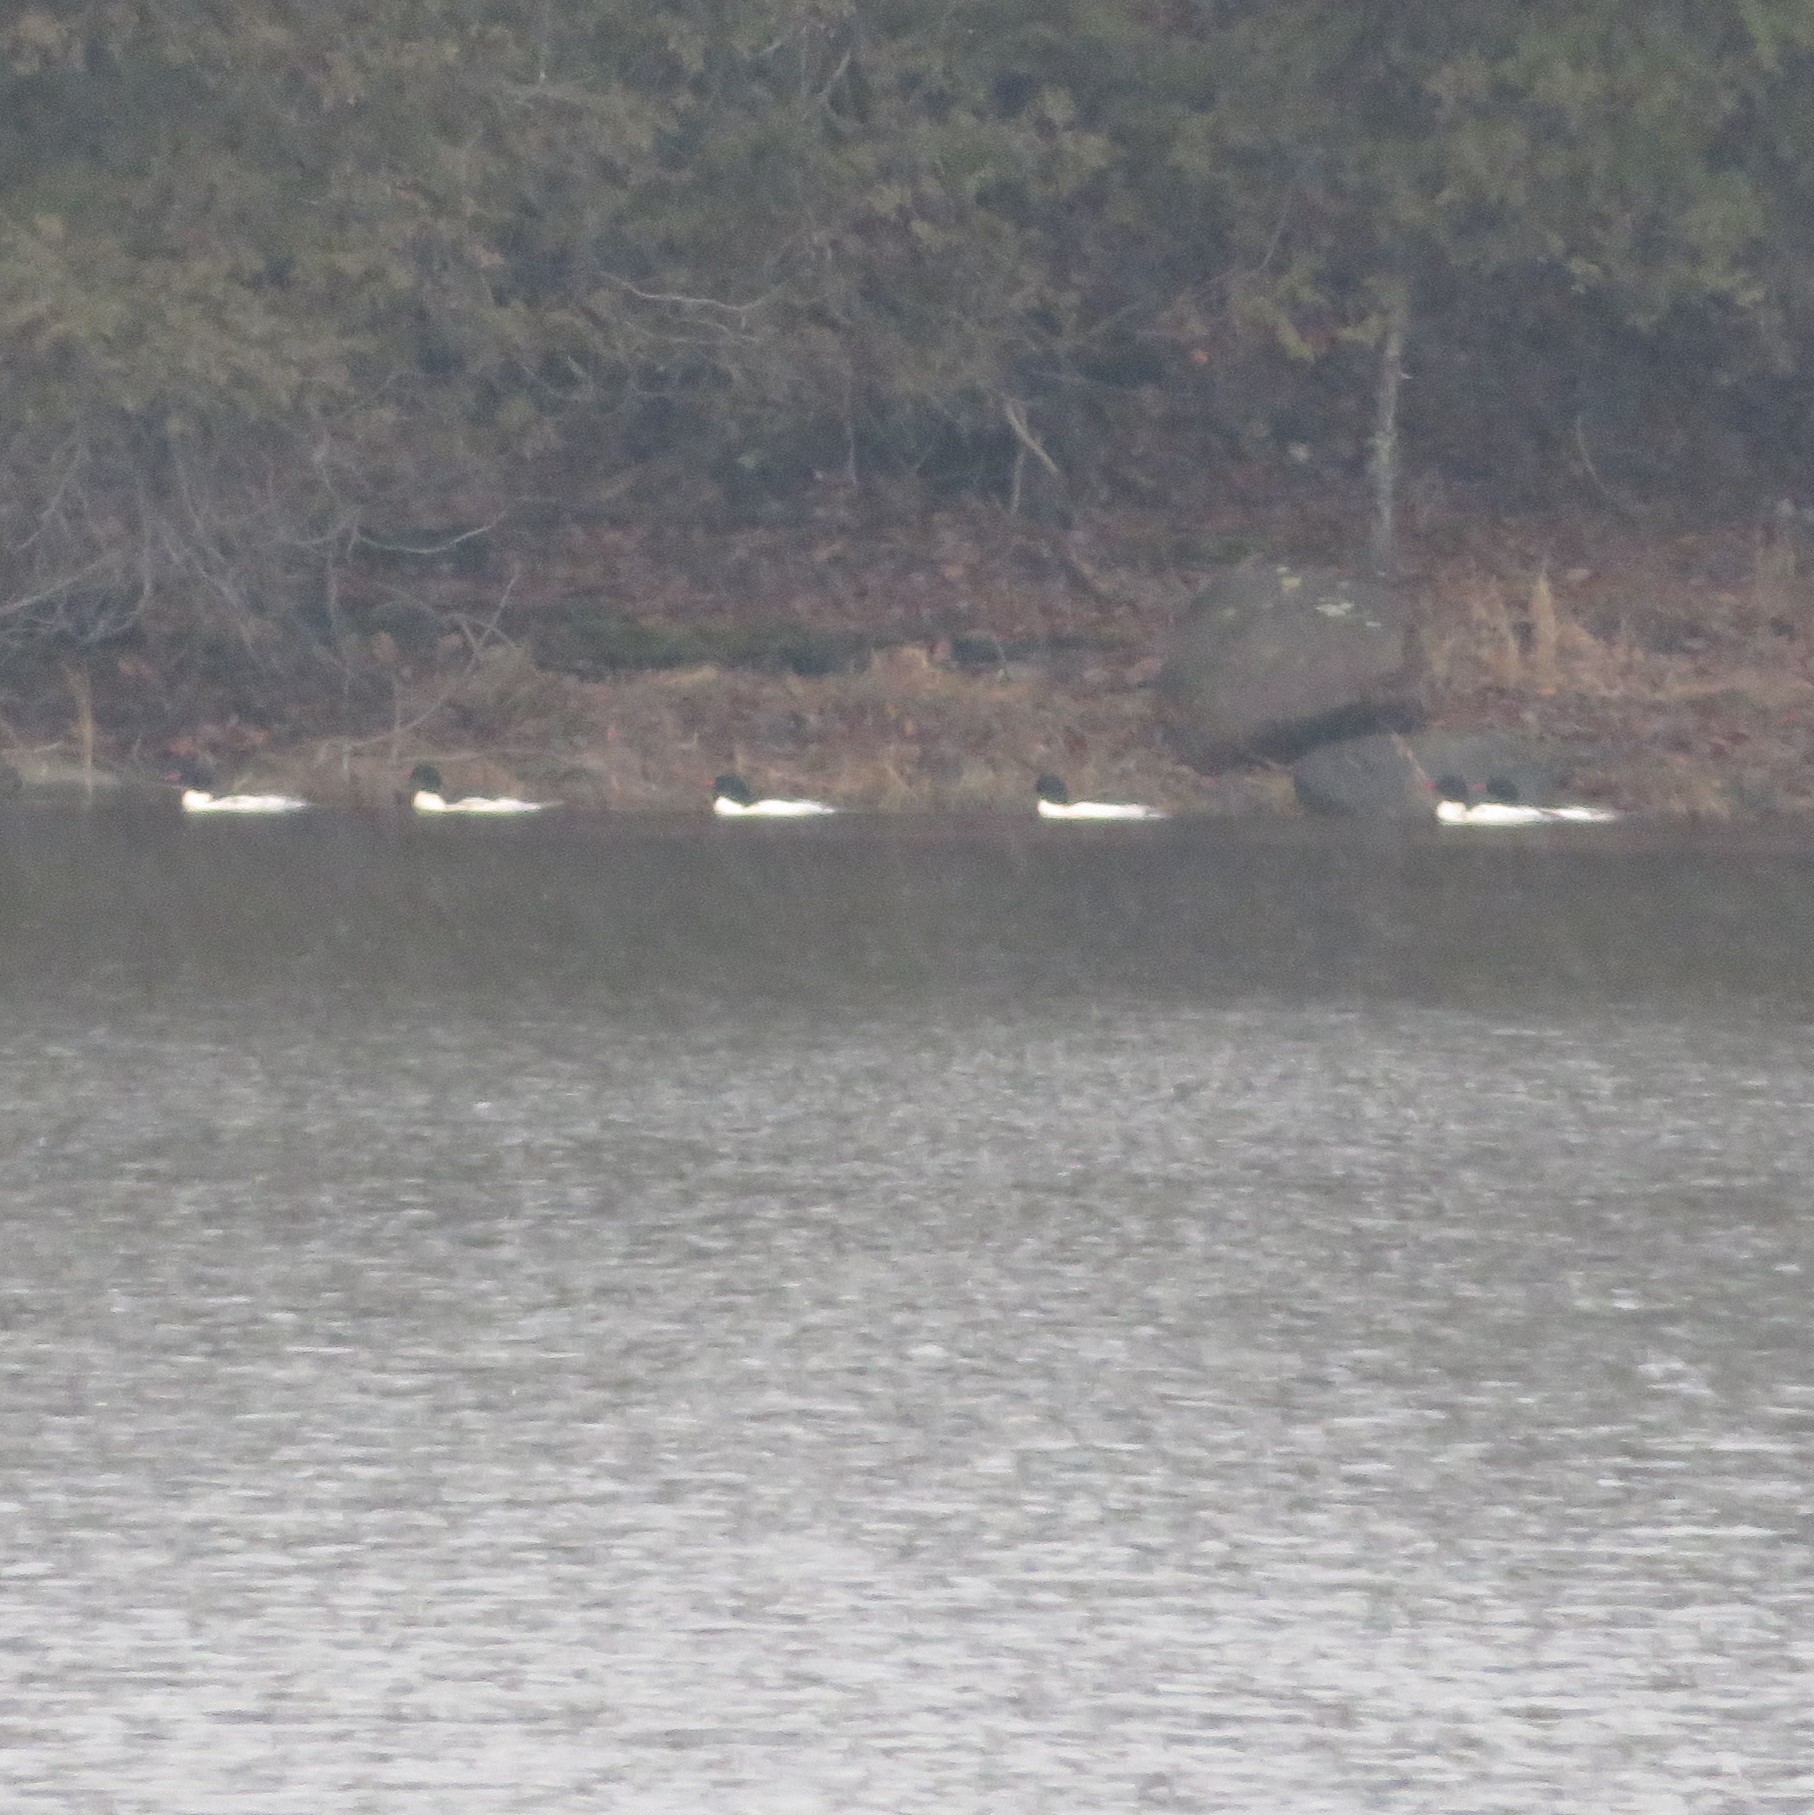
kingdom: Animalia
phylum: Chordata
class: Aves
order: Anseriformes
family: Anatidae
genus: Mergus
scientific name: Mergus merganser
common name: Common merganser
